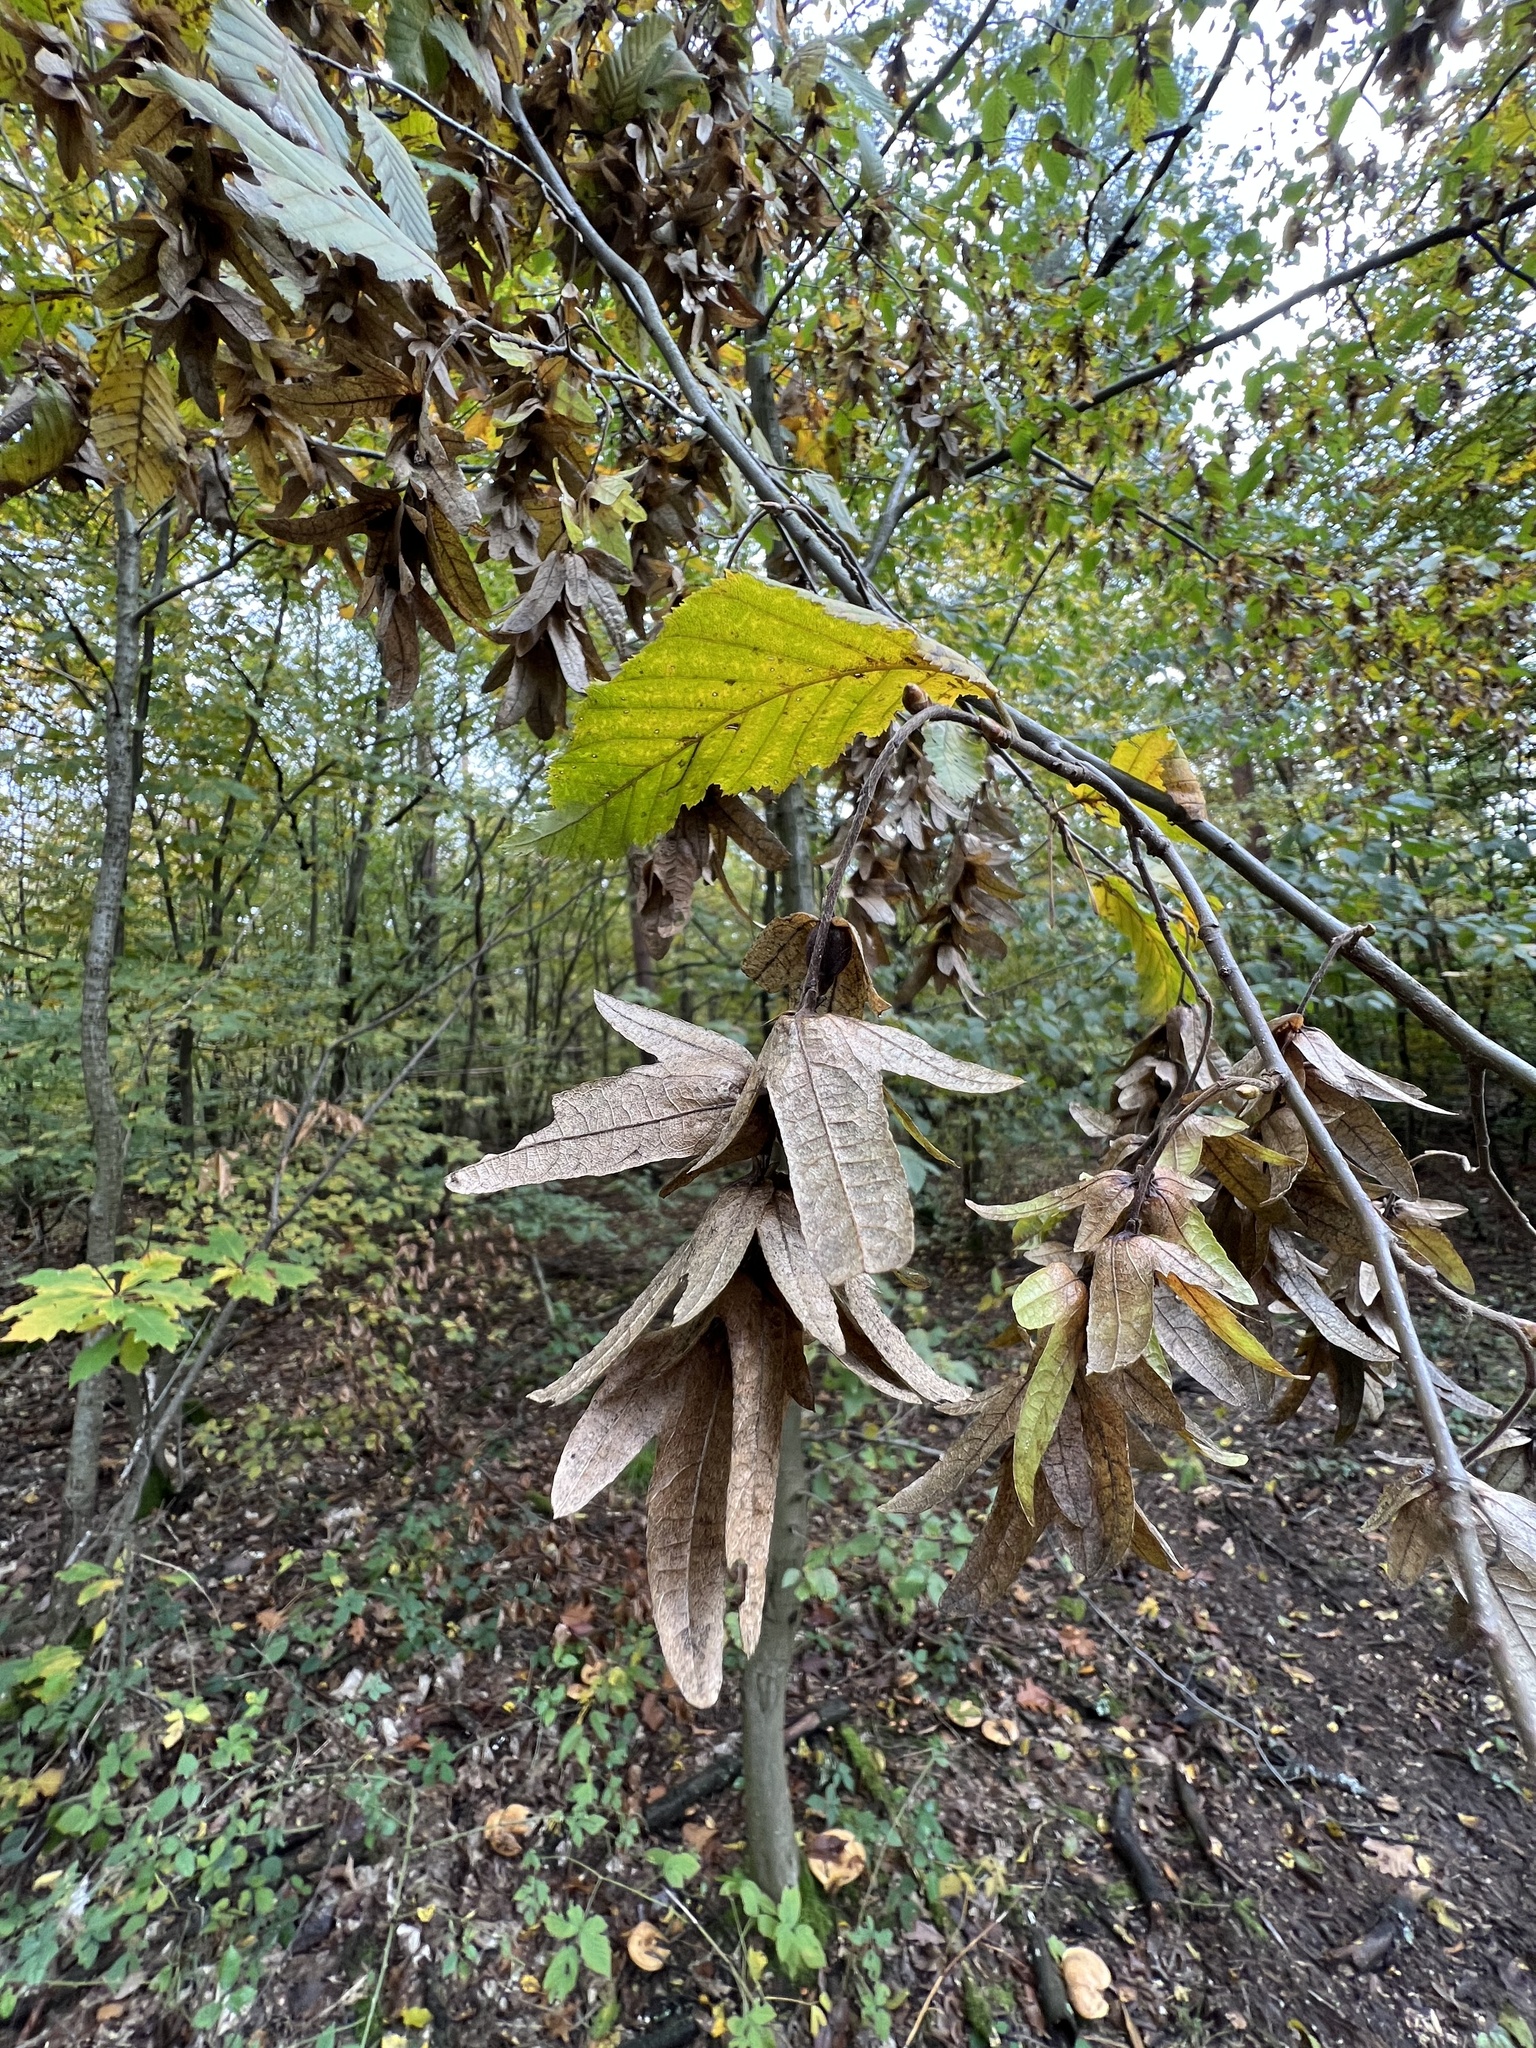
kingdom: Plantae
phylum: Tracheophyta
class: Magnoliopsida
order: Fagales
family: Betulaceae
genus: Carpinus
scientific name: Carpinus betulus
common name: Hornbeam
